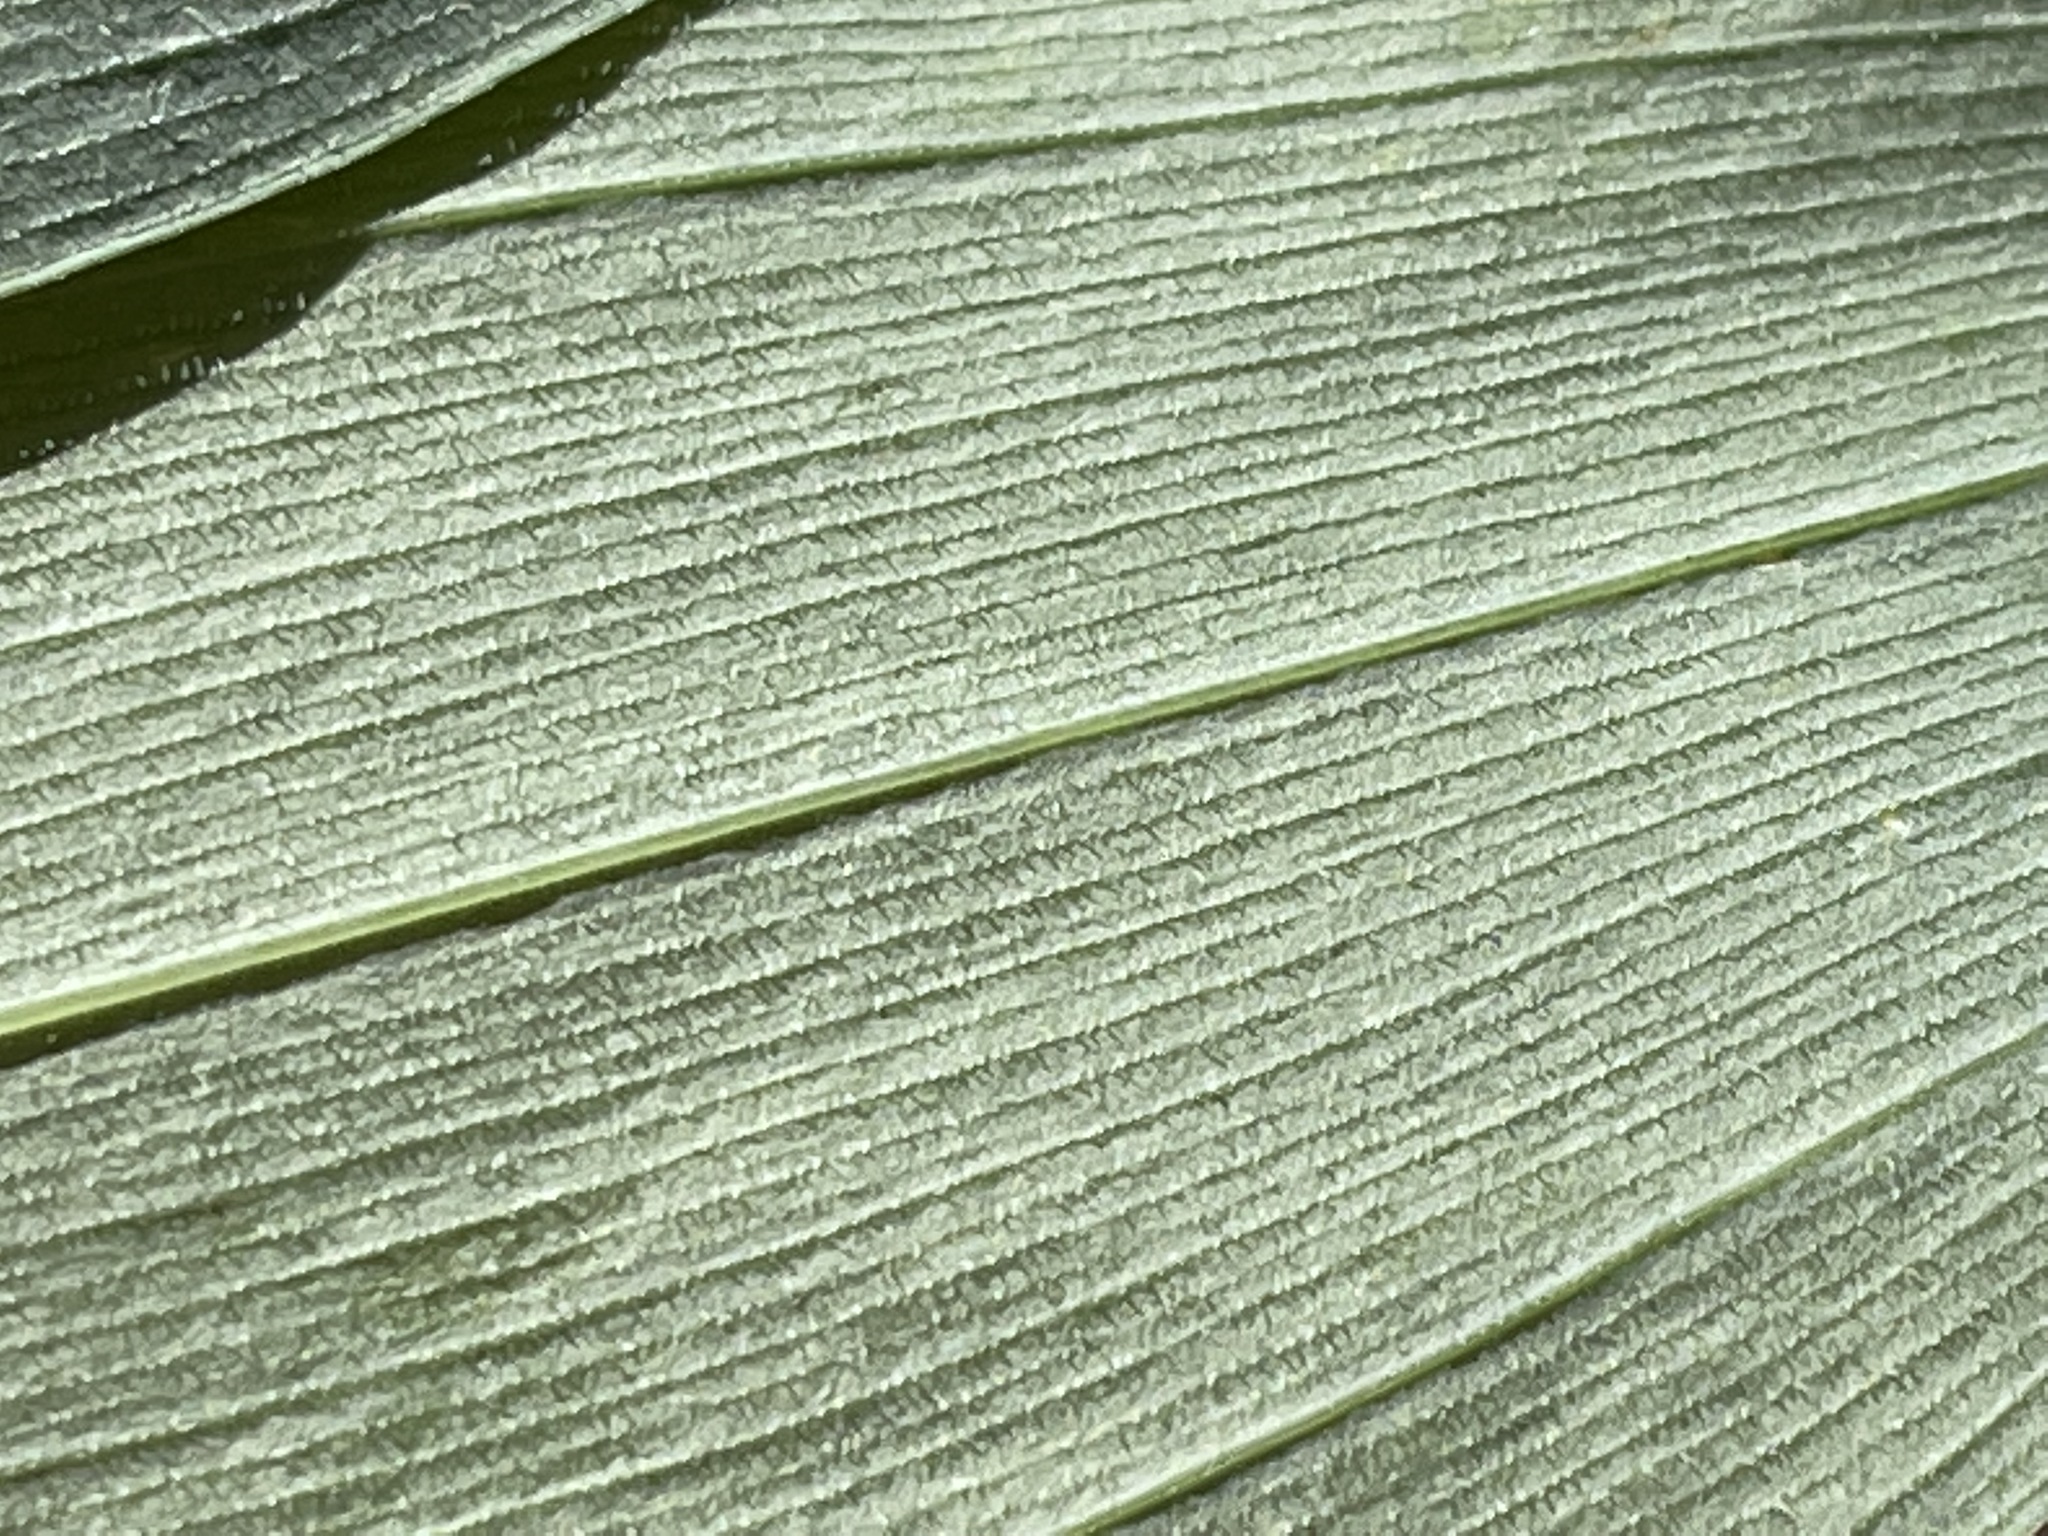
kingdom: Plantae
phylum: Tracheophyta
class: Liliopsida
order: Asparagales
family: Asparagaceae
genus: Polygonatum
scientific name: Polygonatum pubescens
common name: Downy solomon's seal
